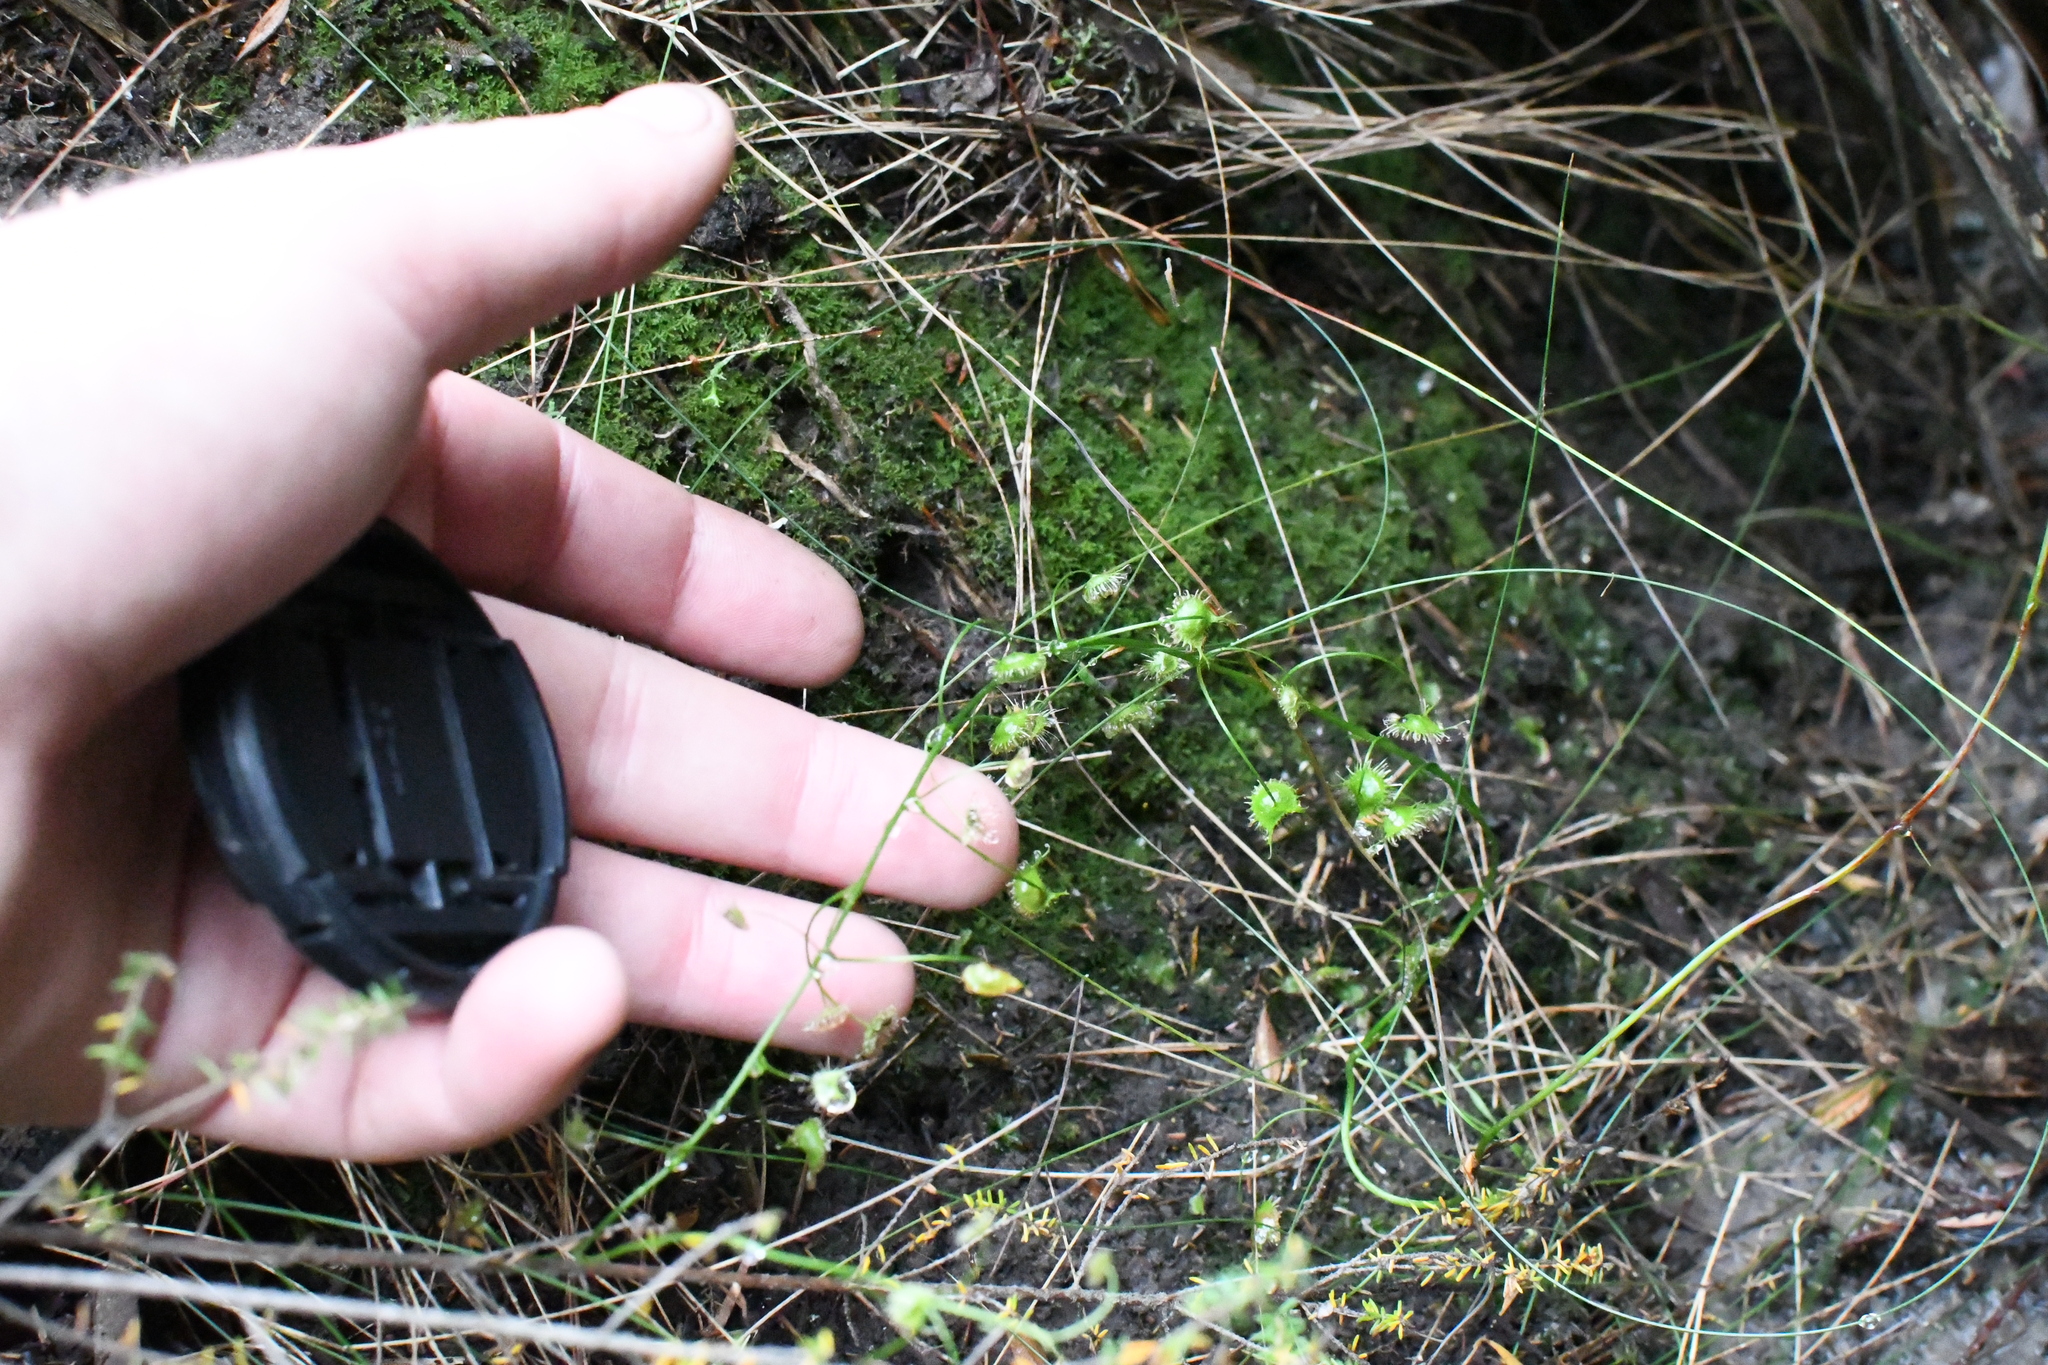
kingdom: Plantae
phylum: Tracheophyta
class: Magnoliopsida
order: Caryophyllales
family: Droseraceae
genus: Drosera
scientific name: Drosera peltata
